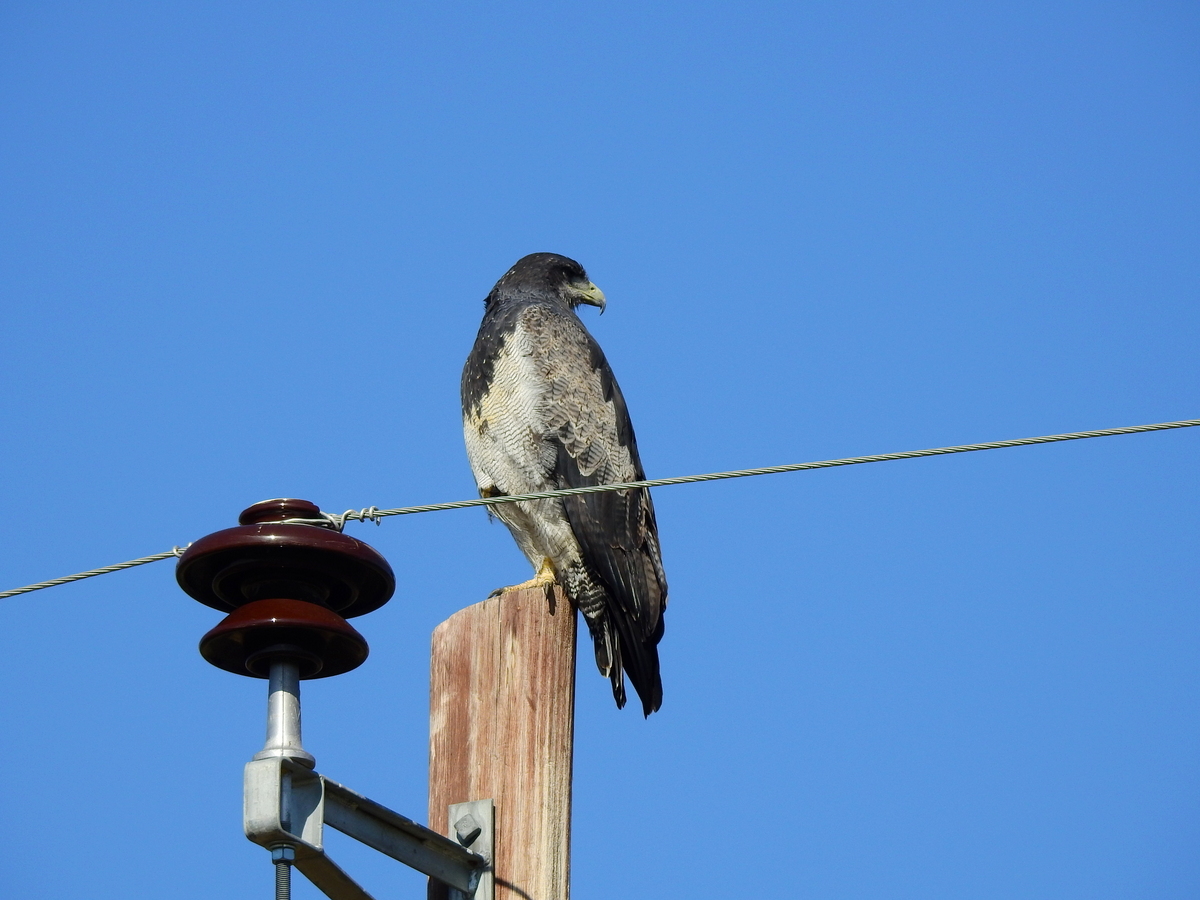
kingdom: Animalia
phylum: Chordata
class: Aves
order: Accipitriformes
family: Accipitridae
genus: Geranoaetus
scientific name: Geranoaetus melanoleucus
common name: Black-chested buzzard-eagle
